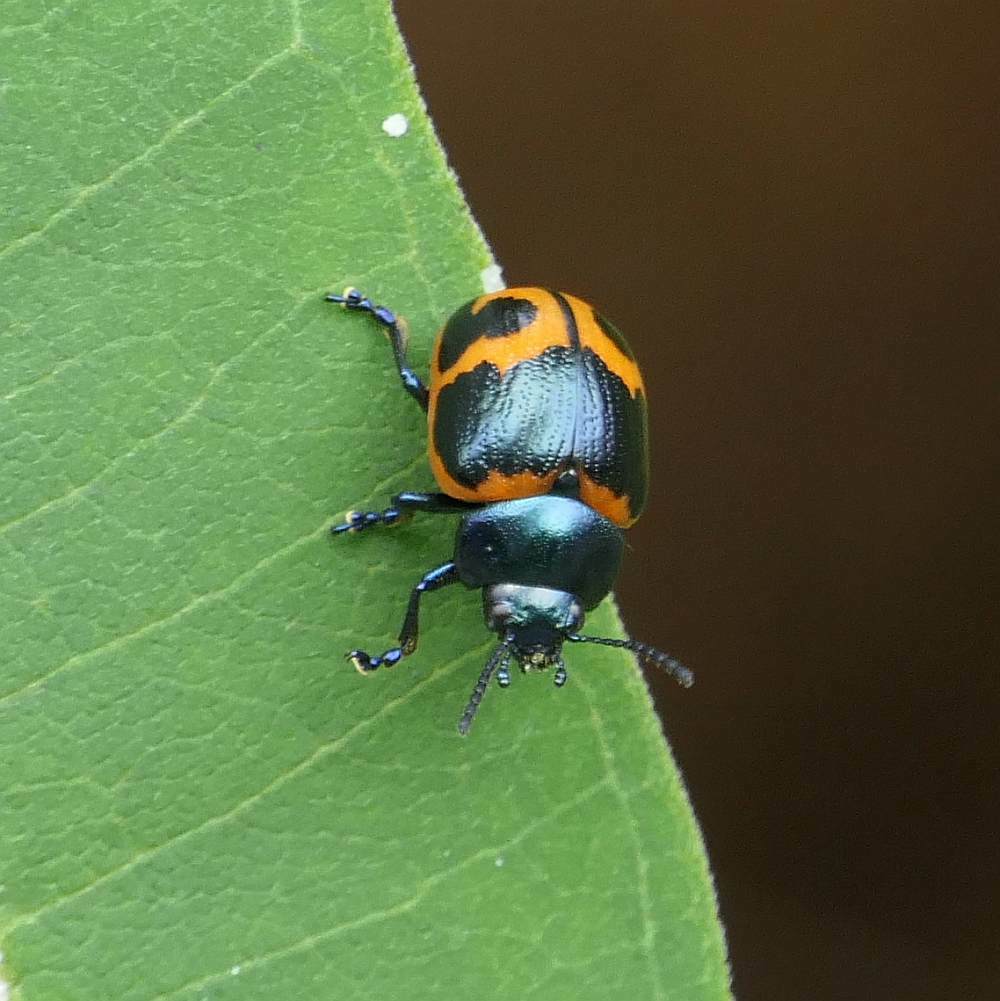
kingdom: Animalia
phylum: Arthropoda
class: Insecta
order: Coleoptera
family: Chrysomelidae
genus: Labidomera
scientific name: Labidomera clivicollis
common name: Swamp milkweed leaf beetle
